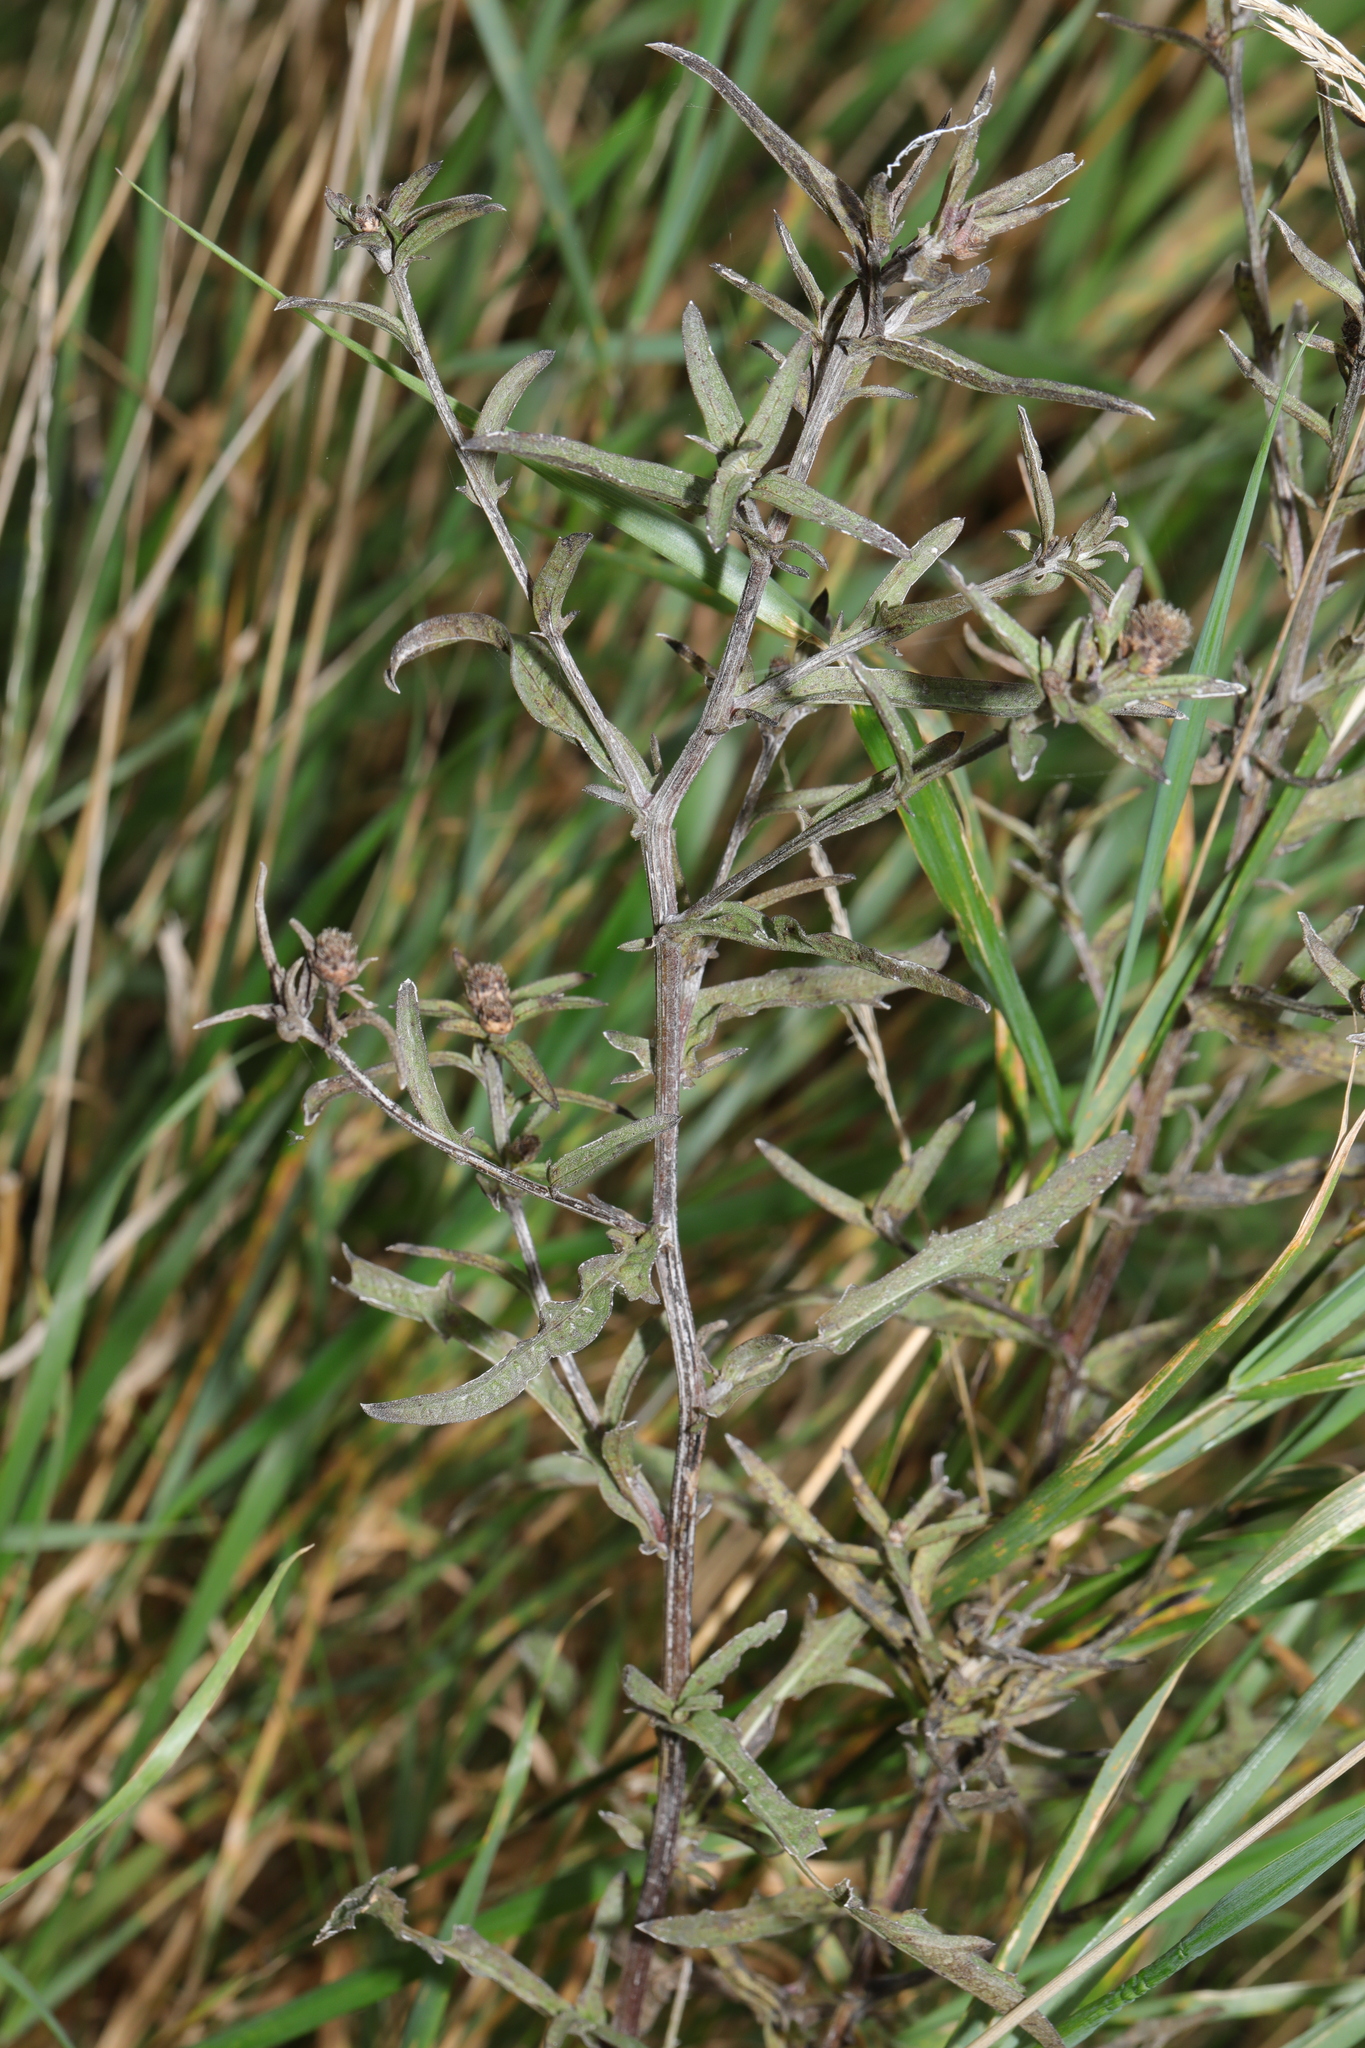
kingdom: Fungi
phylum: Ascomycota
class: Leotiomycetes
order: Helotiales
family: Erysiphaceae
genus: Golovinomyces
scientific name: Golovinomyces montagnei
